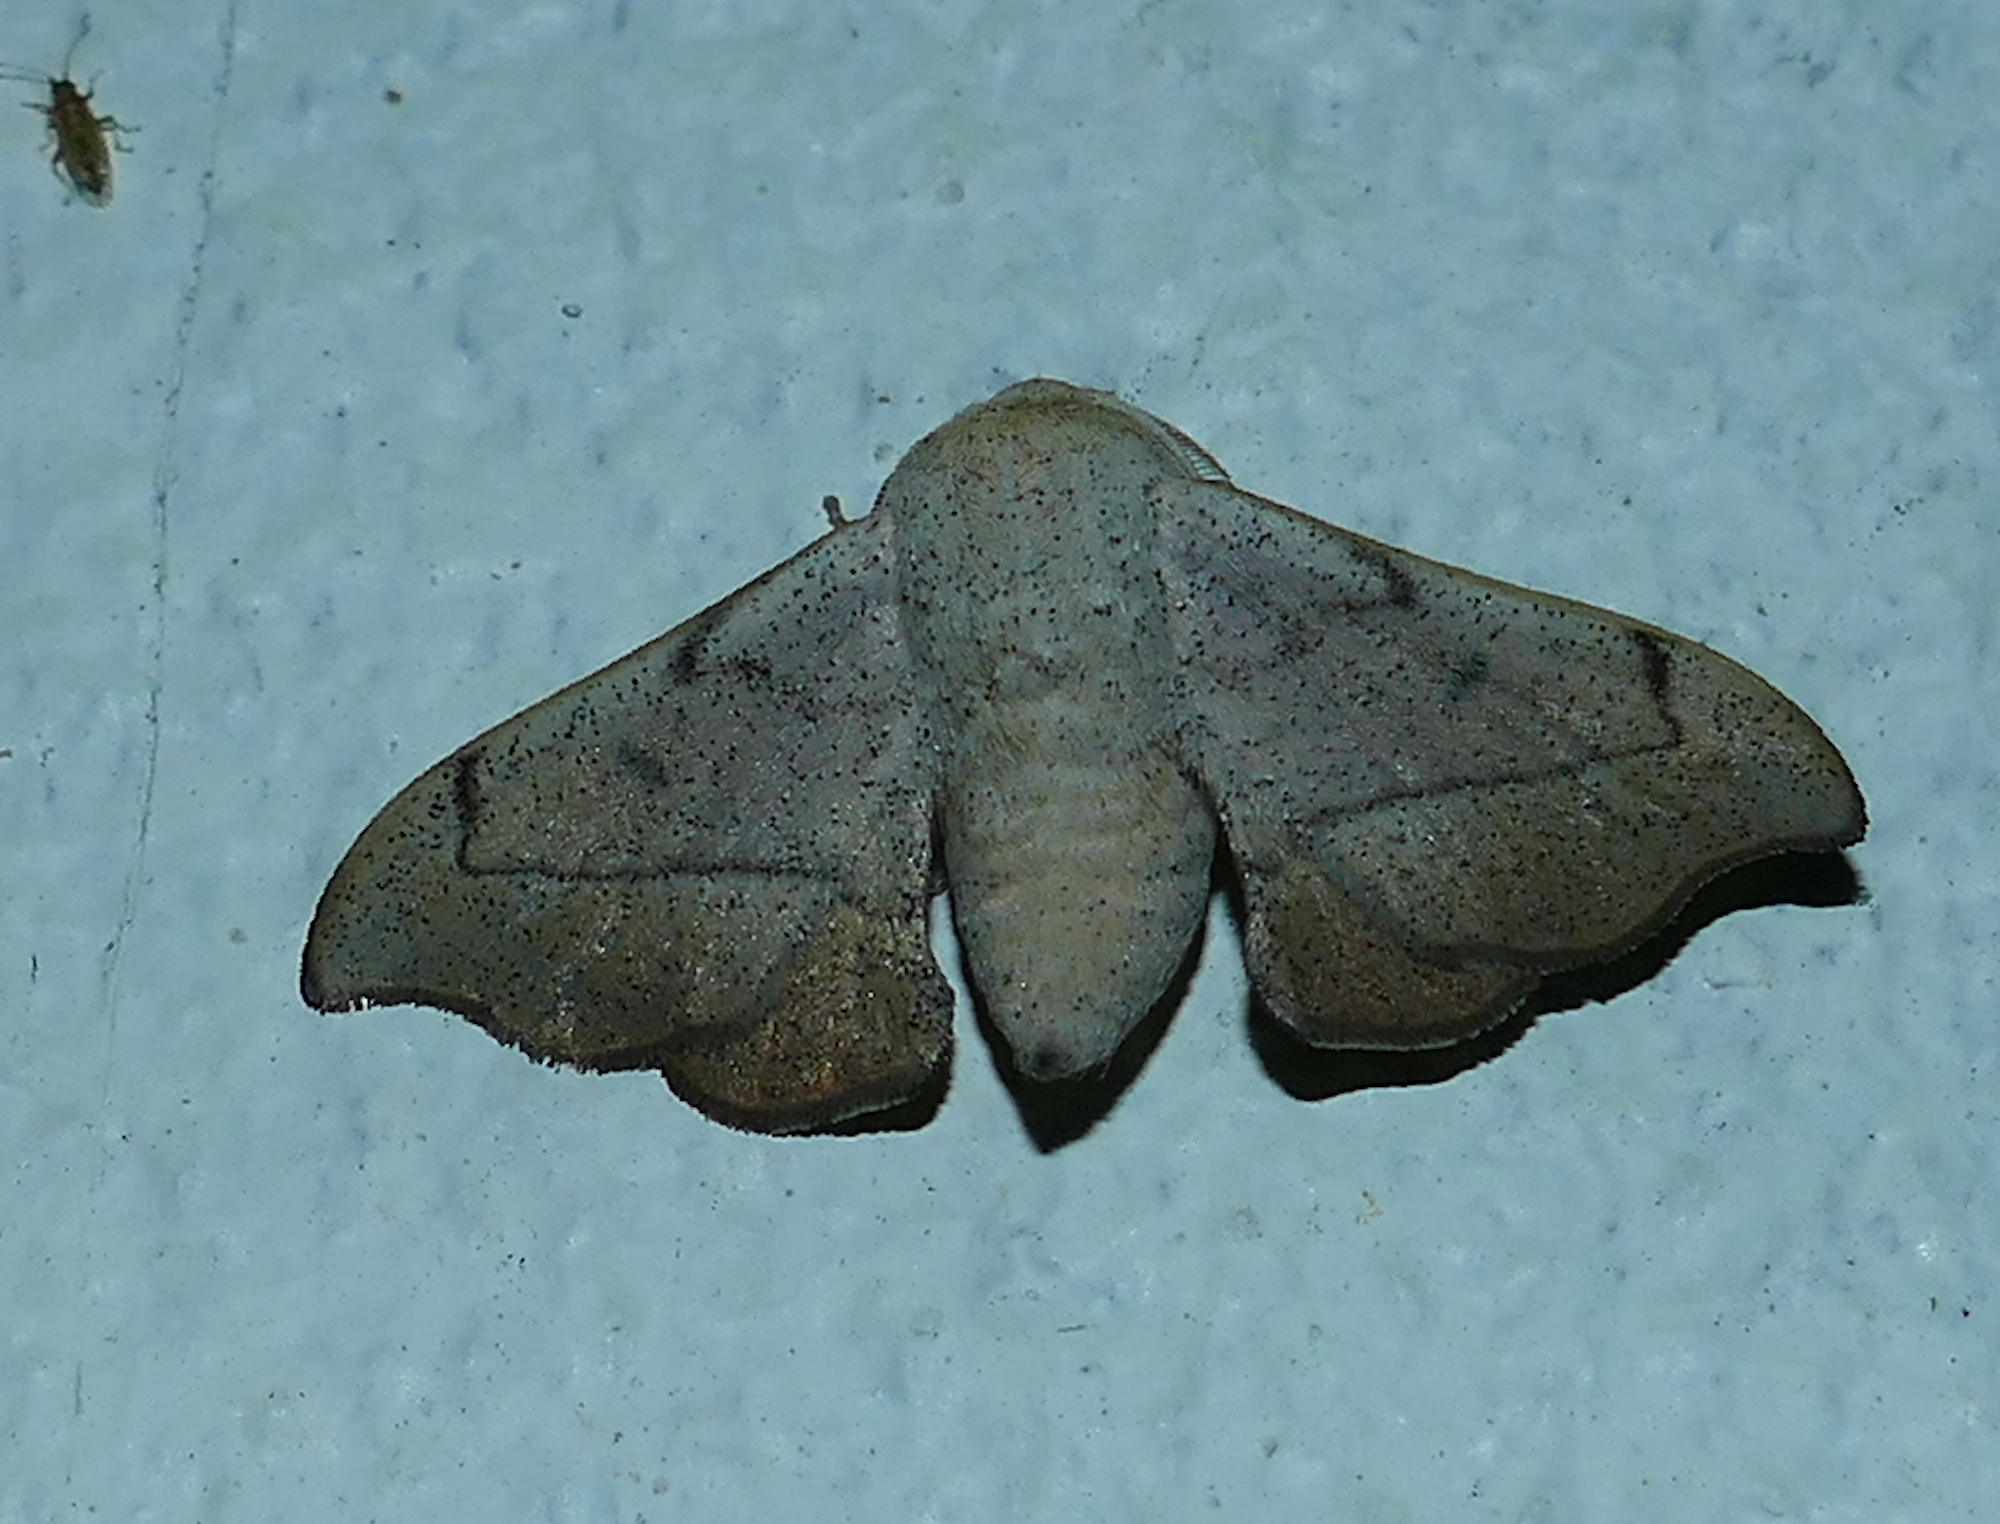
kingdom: Animalia
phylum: Arthropoda
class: Insecta
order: Lepidoptera
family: Mimallonidae
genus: Cicinnus
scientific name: Cicinnus melsheimeri
